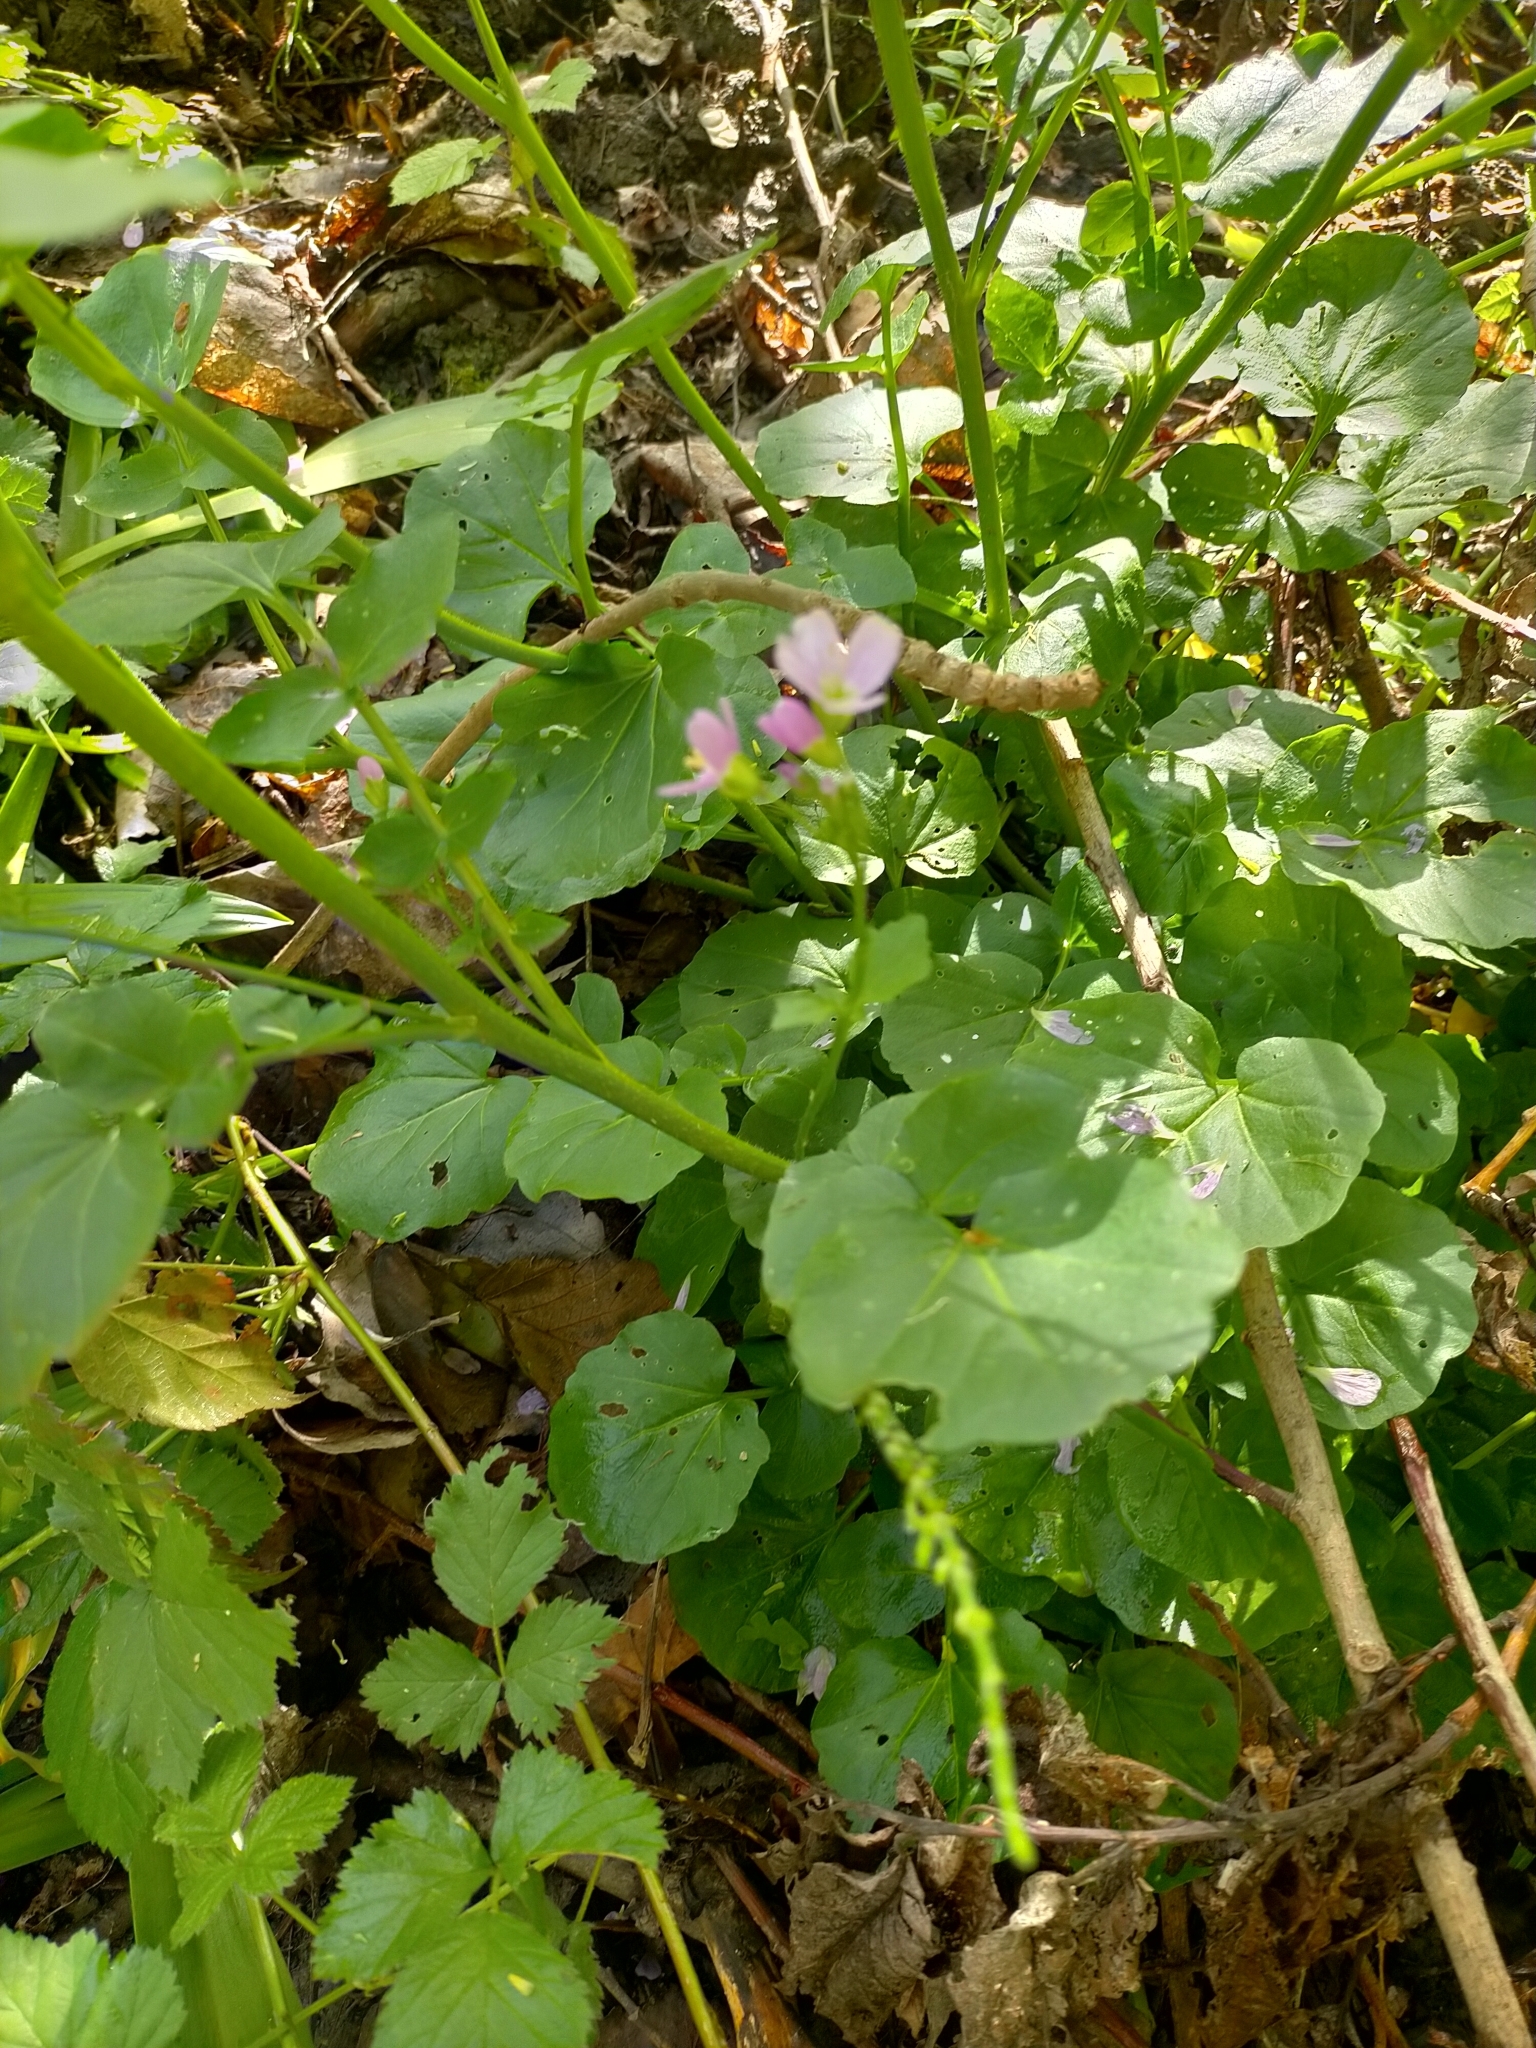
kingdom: Plantae
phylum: Tracheophyta
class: Magnoliopsida
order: Brassicales
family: Brassicaceae
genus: Cardamine
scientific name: Cardamine raphanifolia
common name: Greater cuckooflower
